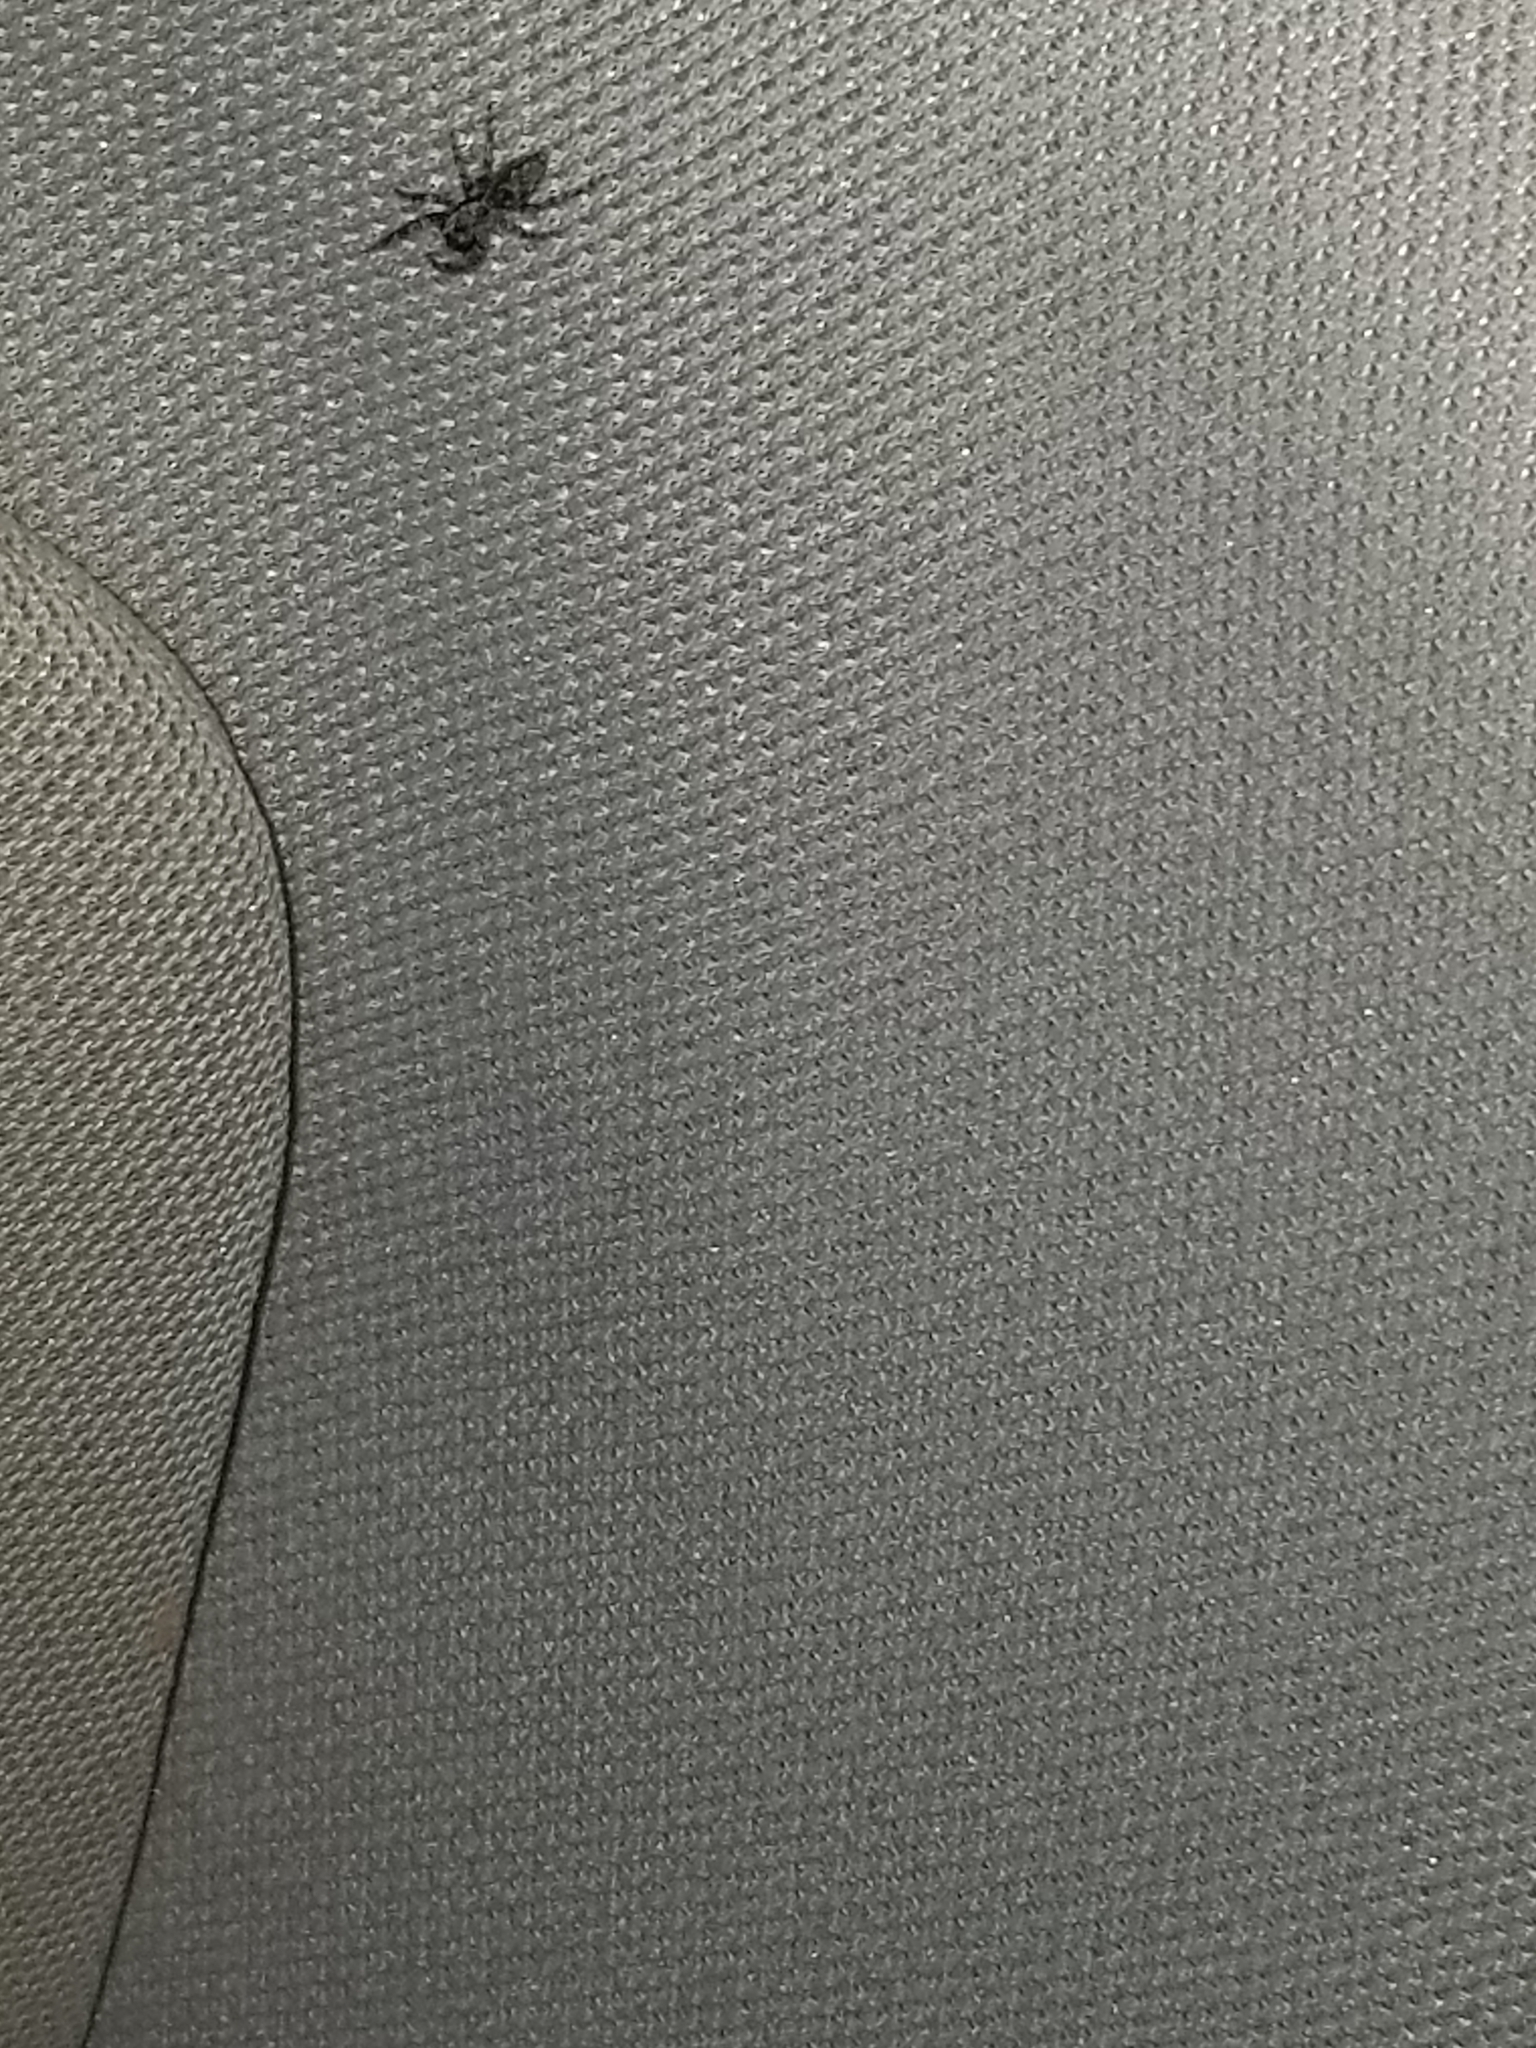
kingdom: Animalia
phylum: Arthropoda
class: Arachnida
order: Araneae
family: Salticidae
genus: Platycryptus
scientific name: Platycryptus undatus
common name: Tan jumping spider
